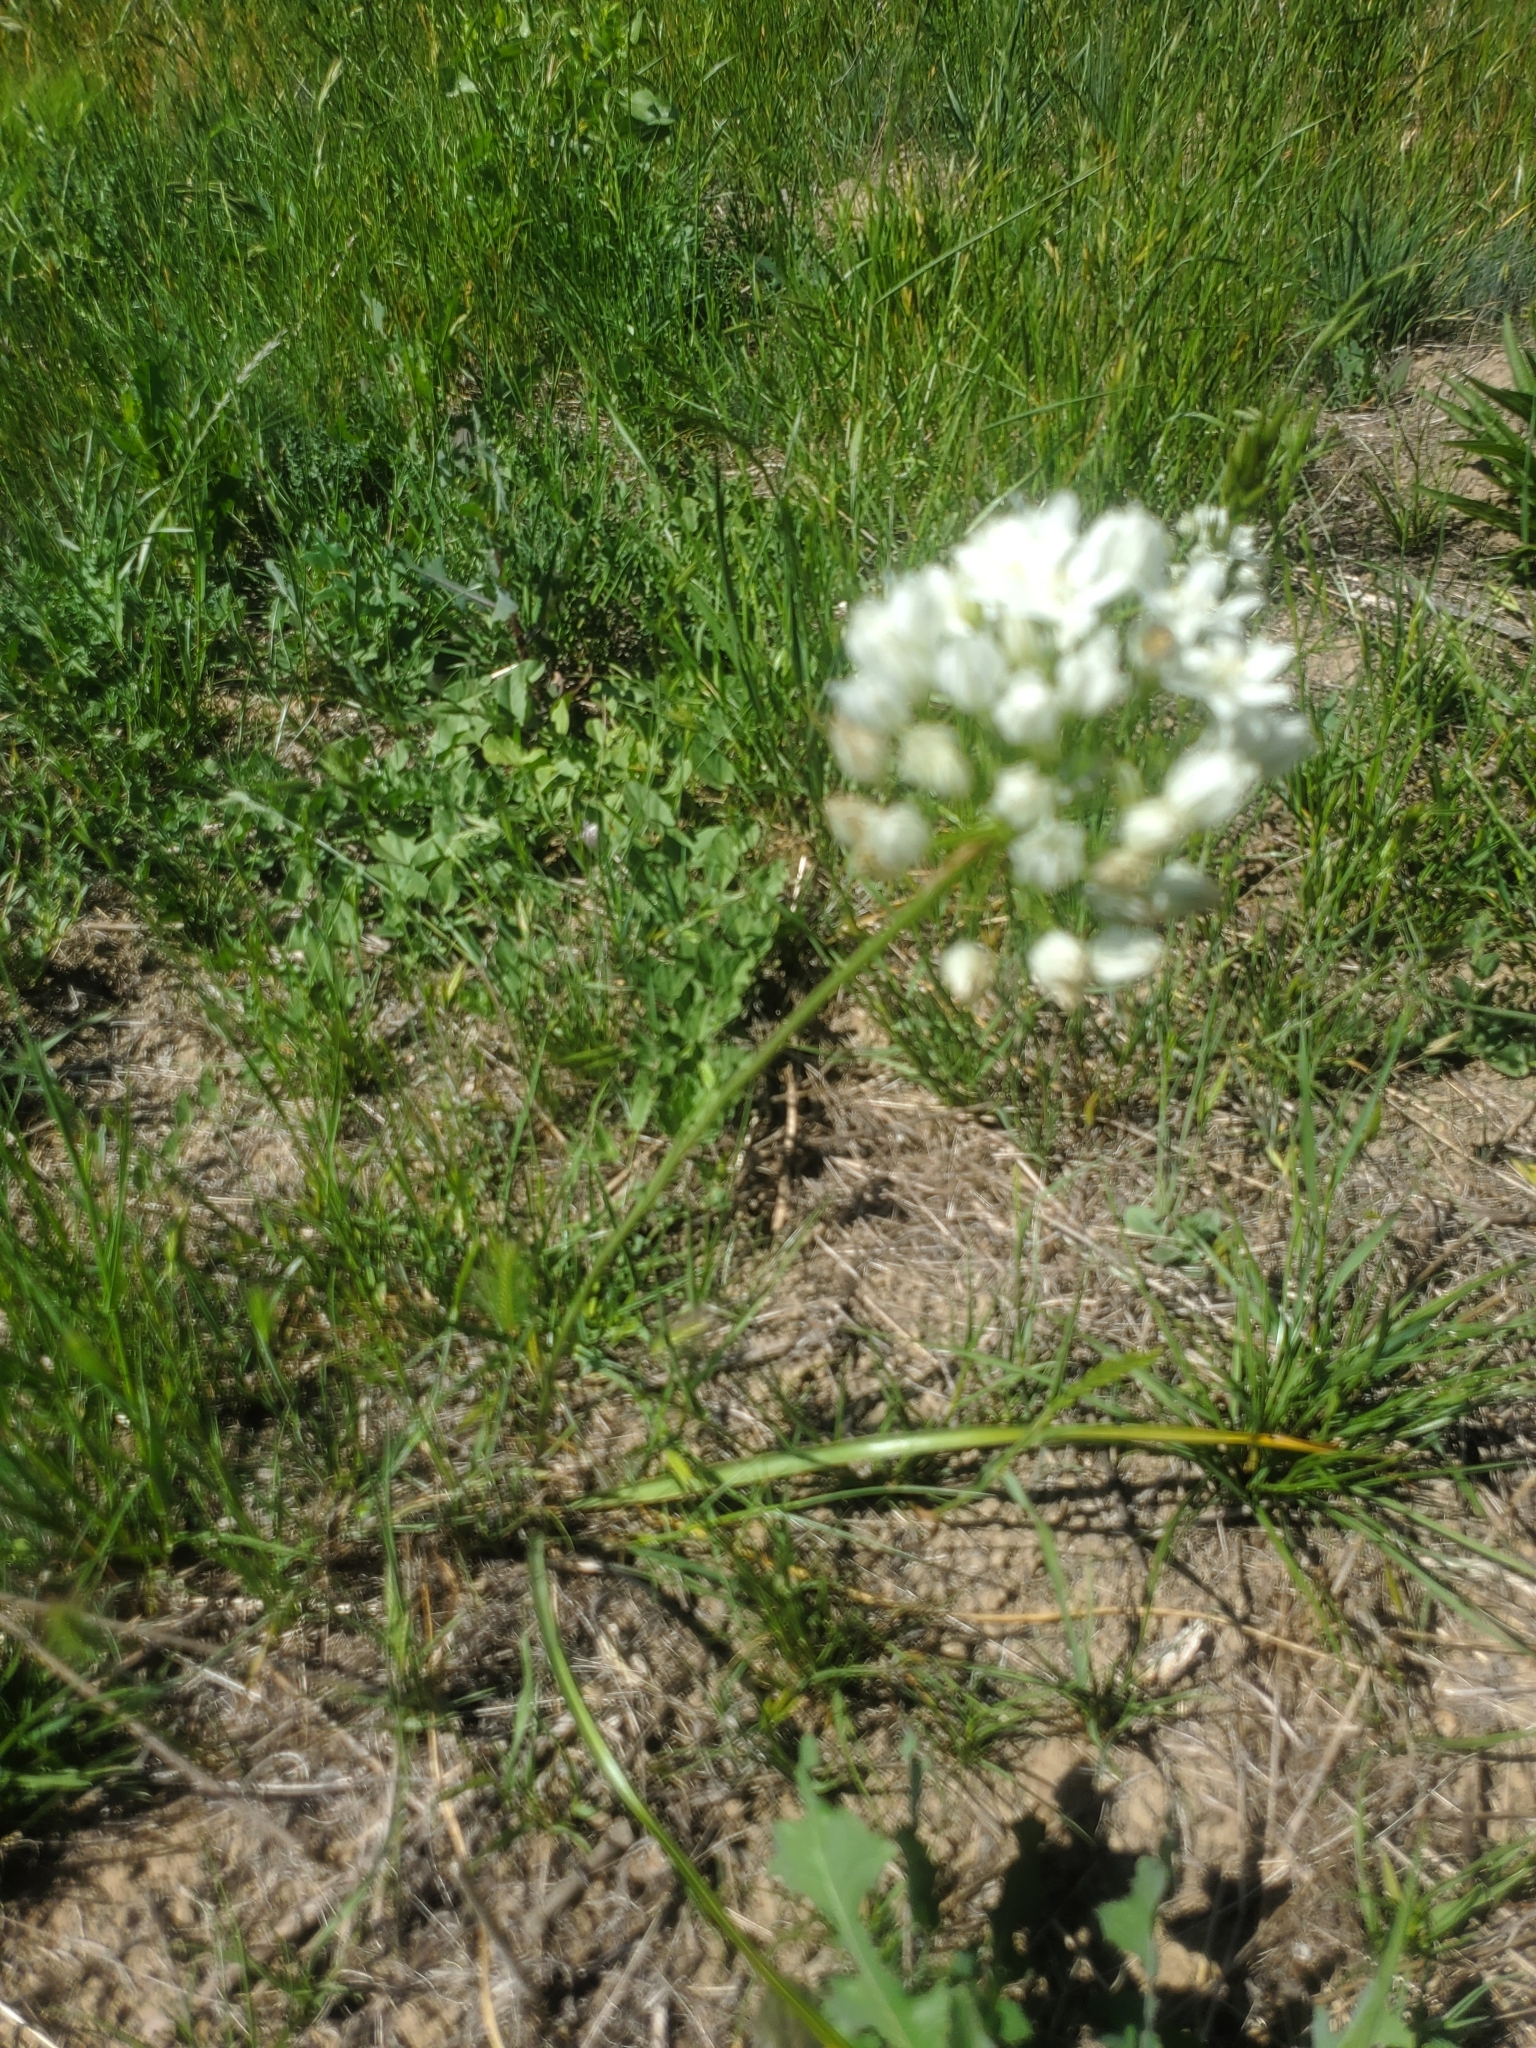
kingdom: Plantae
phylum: Tracheophyta
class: Liliopsida
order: Asparagales
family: Asparagaceae
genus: Triteleia
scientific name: Triteleia hyacinthina
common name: White brodiaea
